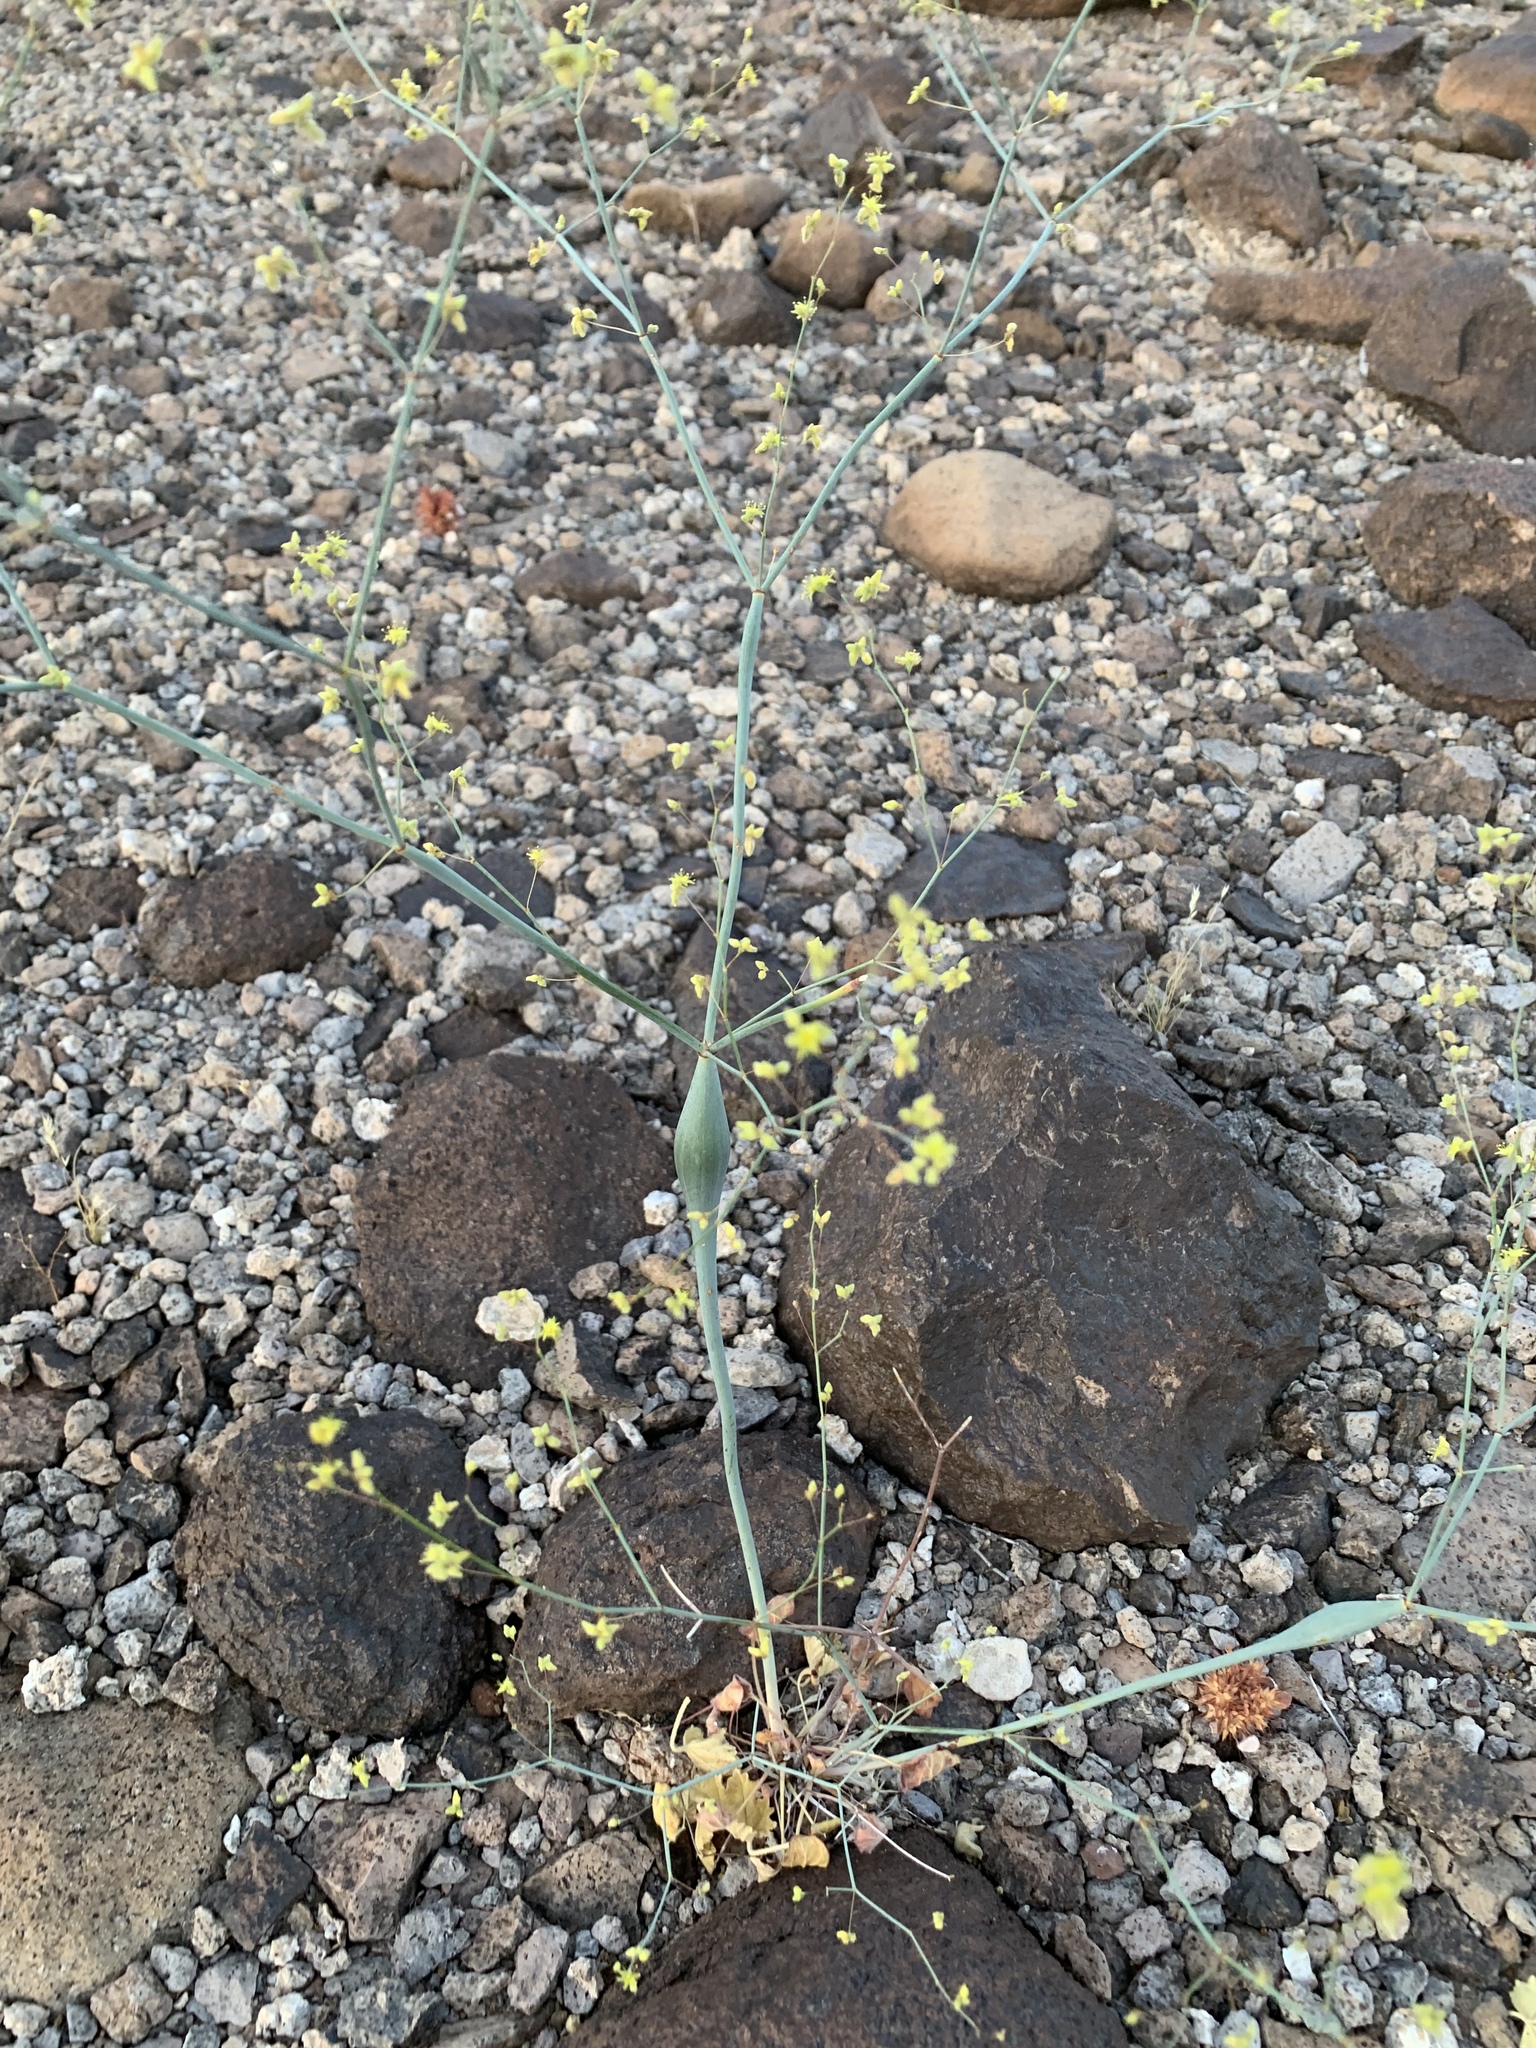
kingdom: Plantae
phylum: Tracheophyta
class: Magnoliopsida
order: Caryophyllales
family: Polygonaceae
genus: Eriogonum
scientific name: Eriogonum inflatum
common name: Desert trumpet
